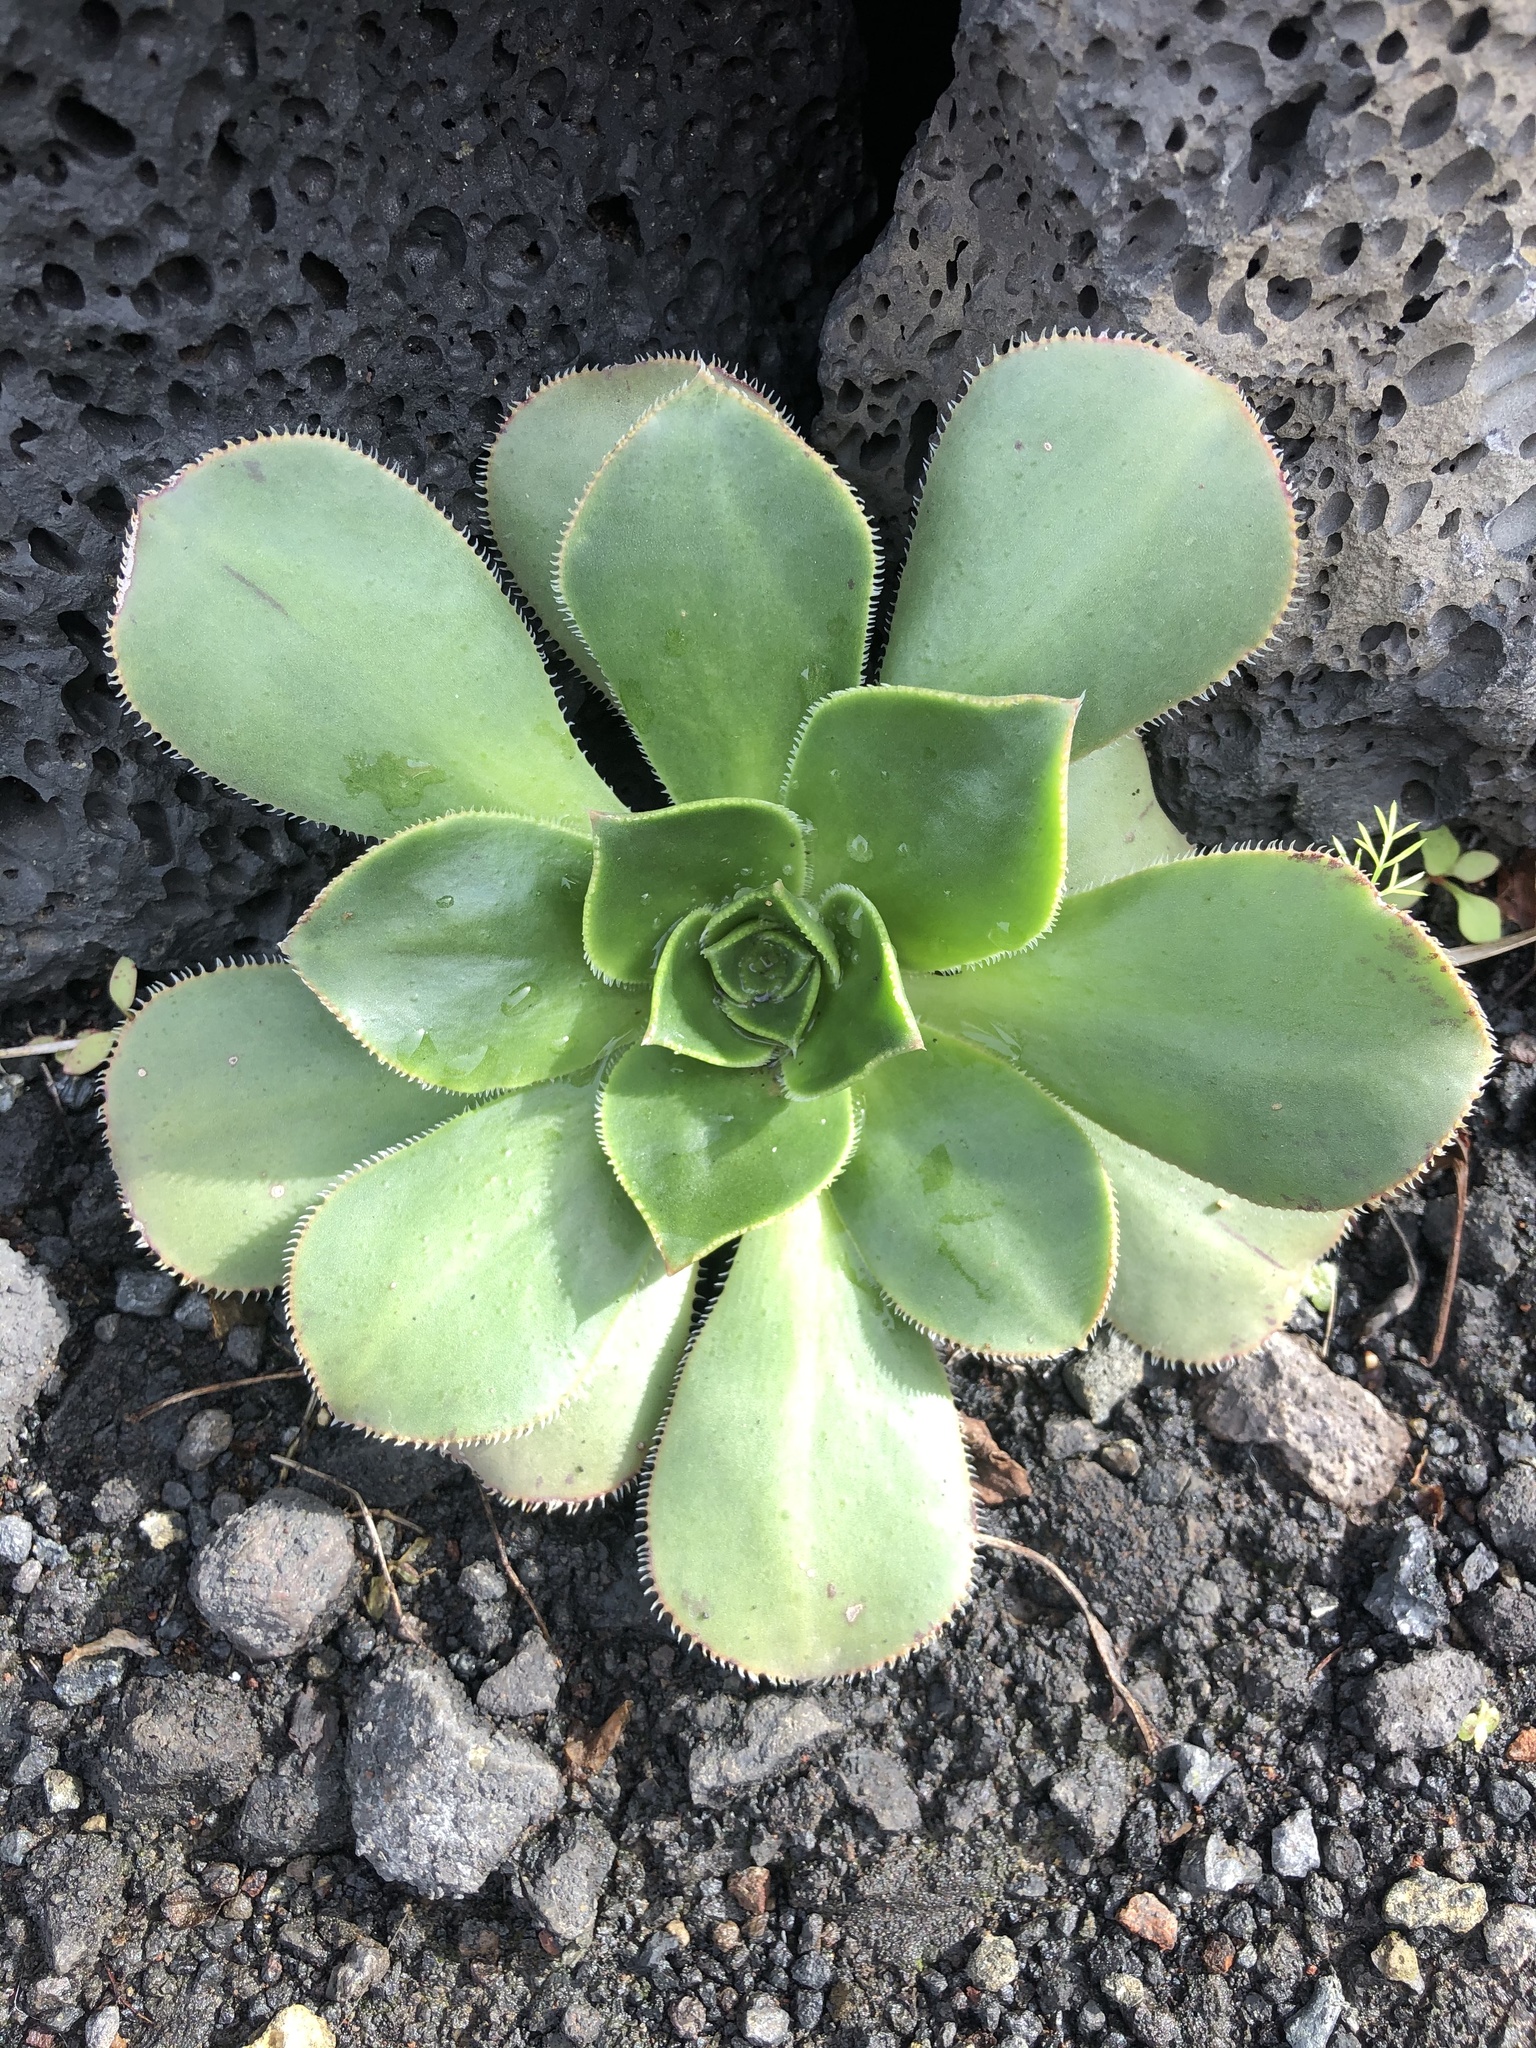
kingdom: Plantae
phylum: Tracheophyta
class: Magnoliopsida
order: Saxifragales
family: Crassulaceae
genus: Aeonium
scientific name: Aeonium hierrense
